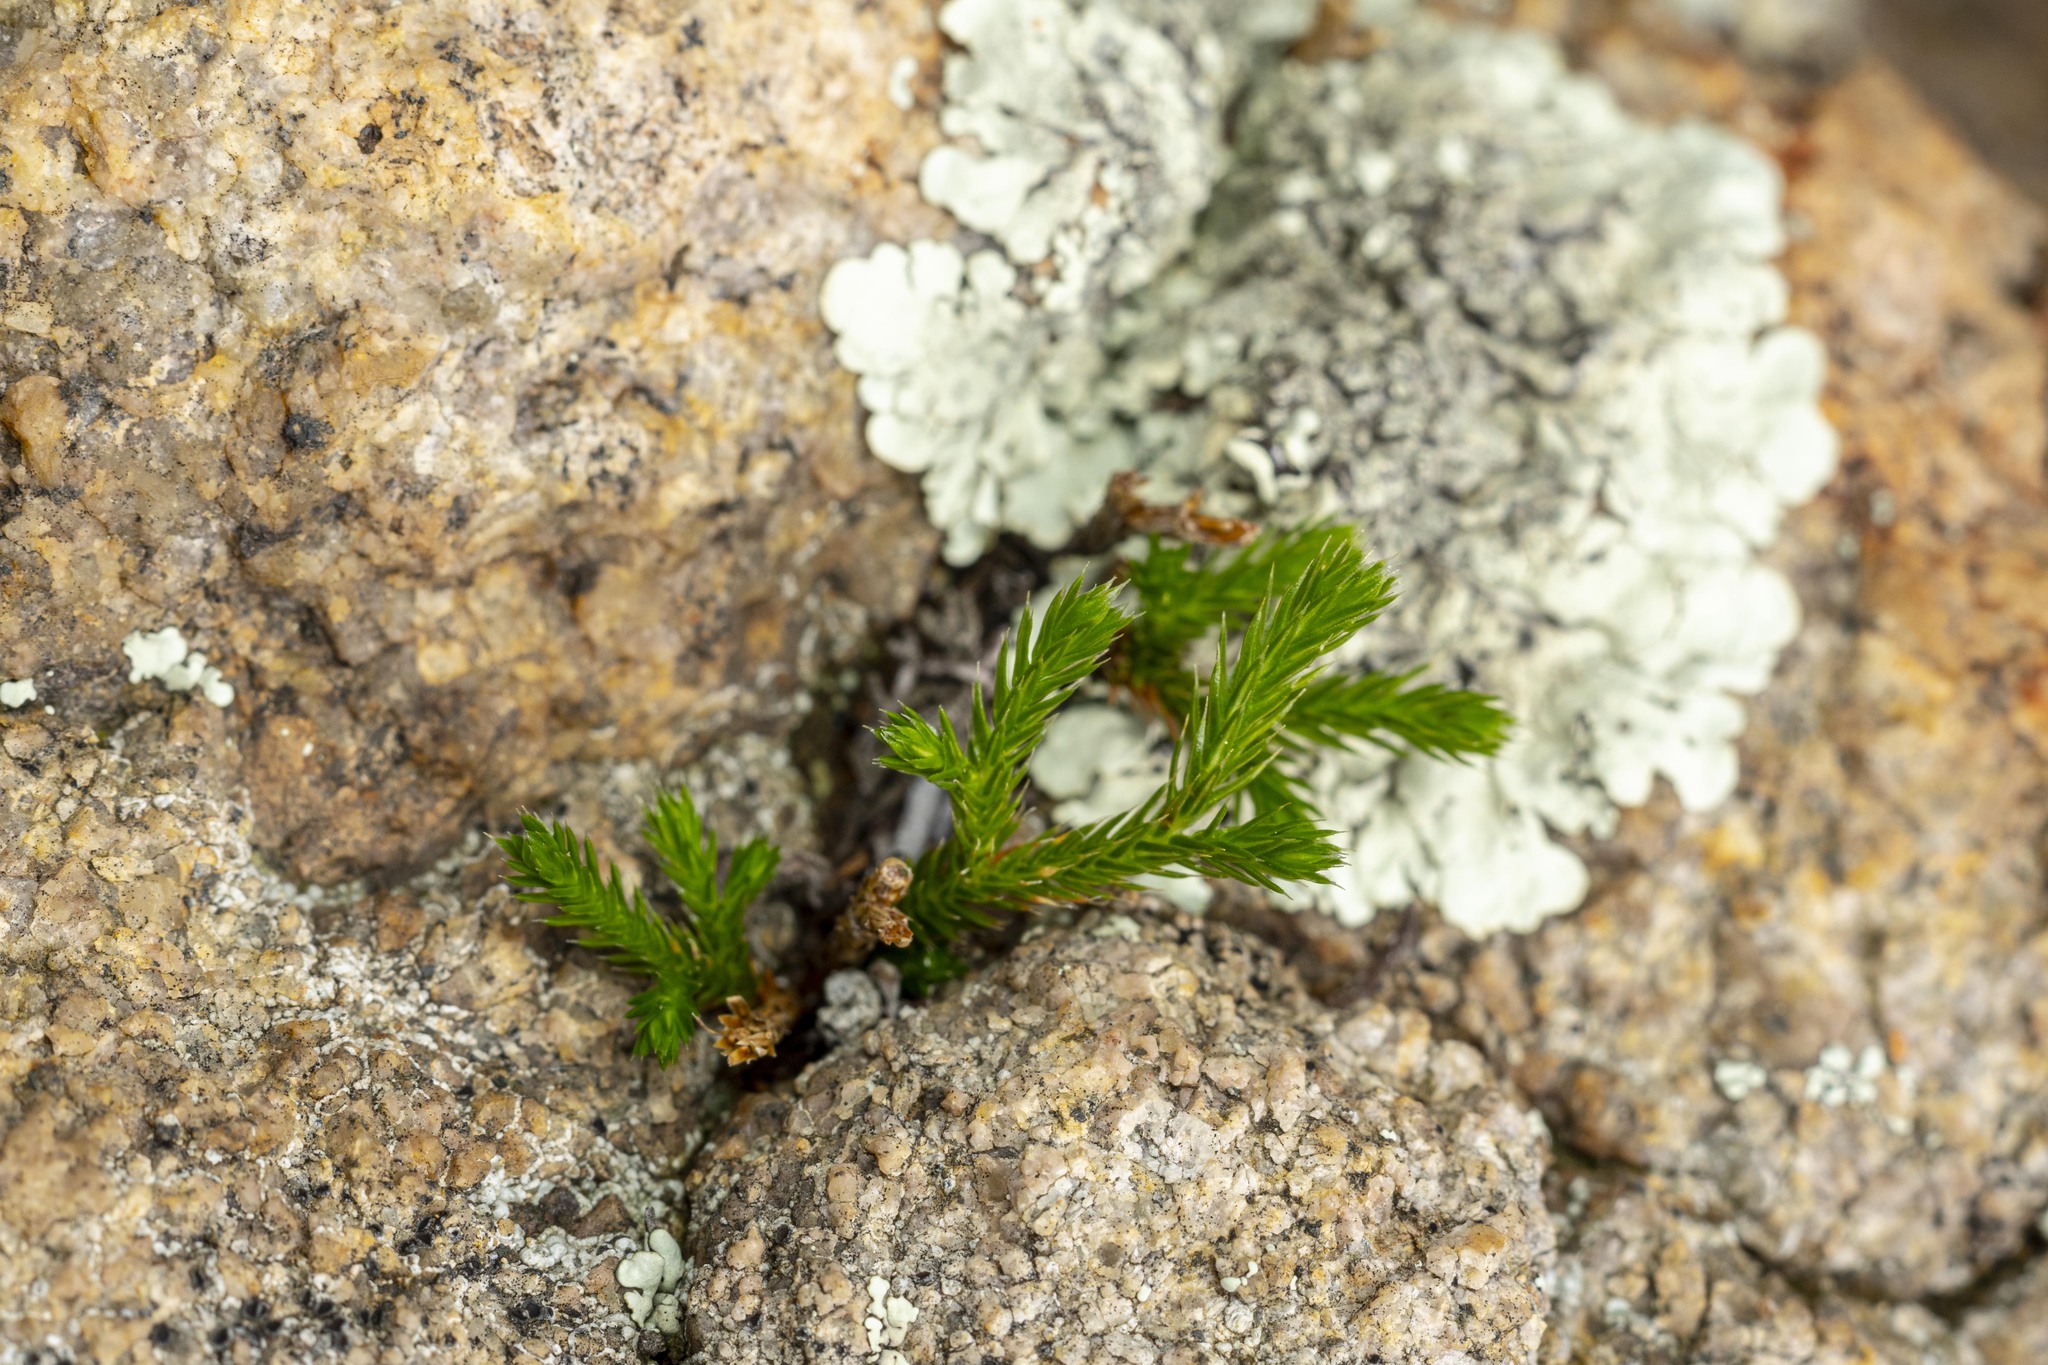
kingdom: Plantae
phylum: Tracheophyta
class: Lycopodiopsida
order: Selaginellales
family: Selaginellaceae
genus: Selaginella
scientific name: Selaginella bigelovii
